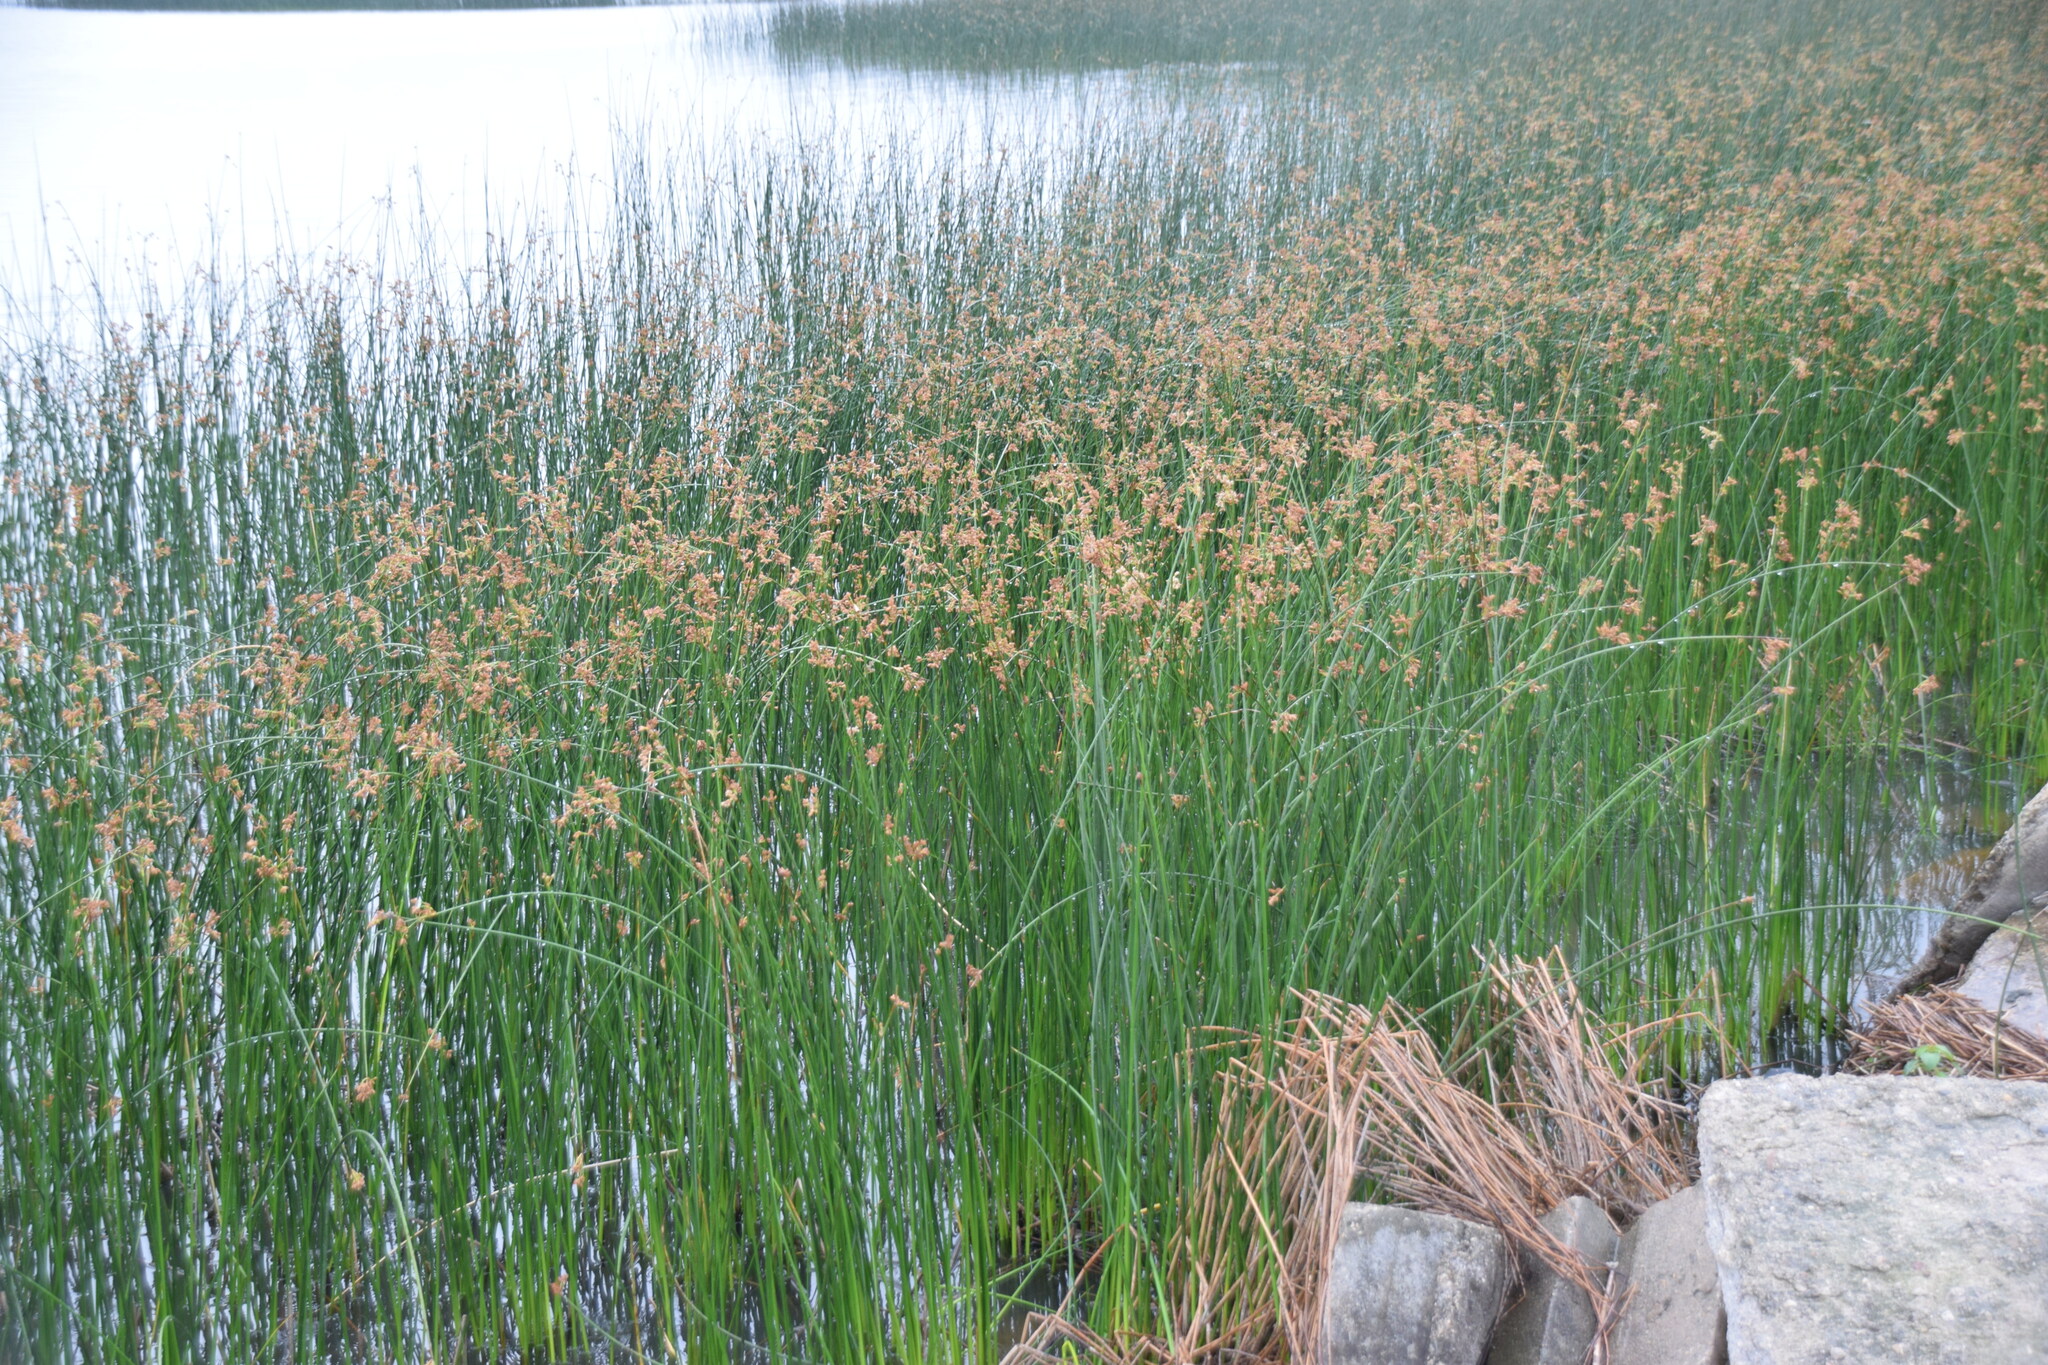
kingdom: Plantae
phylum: Tracheophyta
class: Liliopsida
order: Poales
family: Cyperaceae
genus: Schoenoplectus
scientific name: Schoenoplectus tabernaemontani
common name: Grey club-rush
